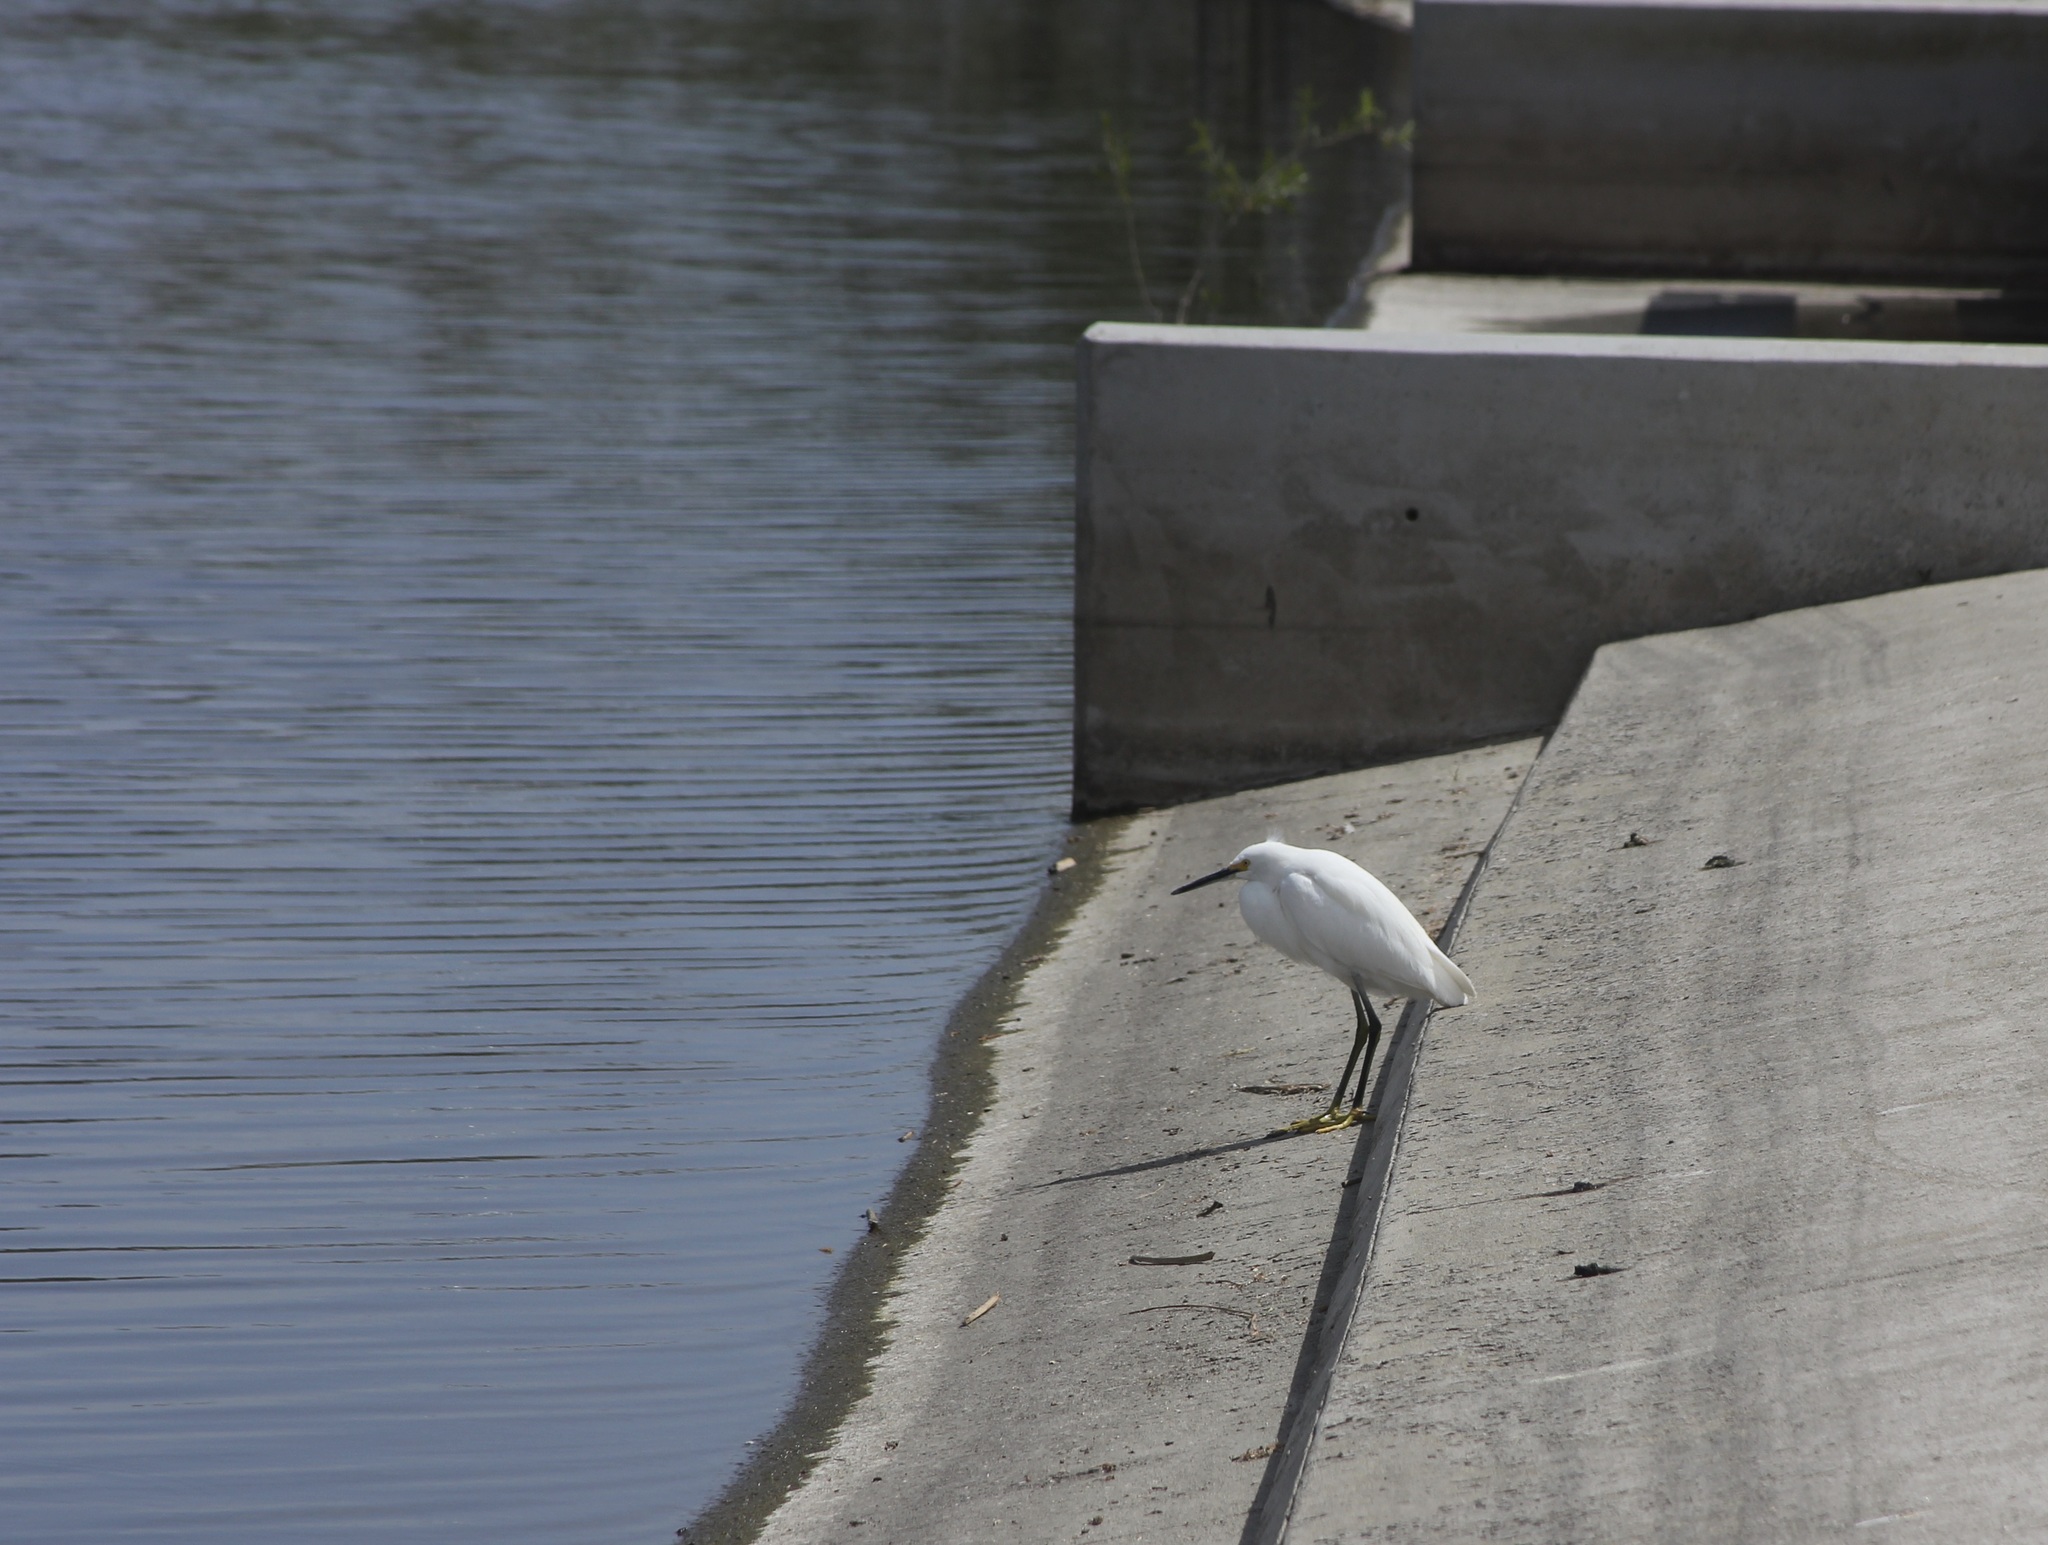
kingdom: Animalia
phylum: Chordata
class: Aves
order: Pelecaniformes
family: Ardeidae
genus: Egretta
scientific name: Egretta thula
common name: Snowy egret
